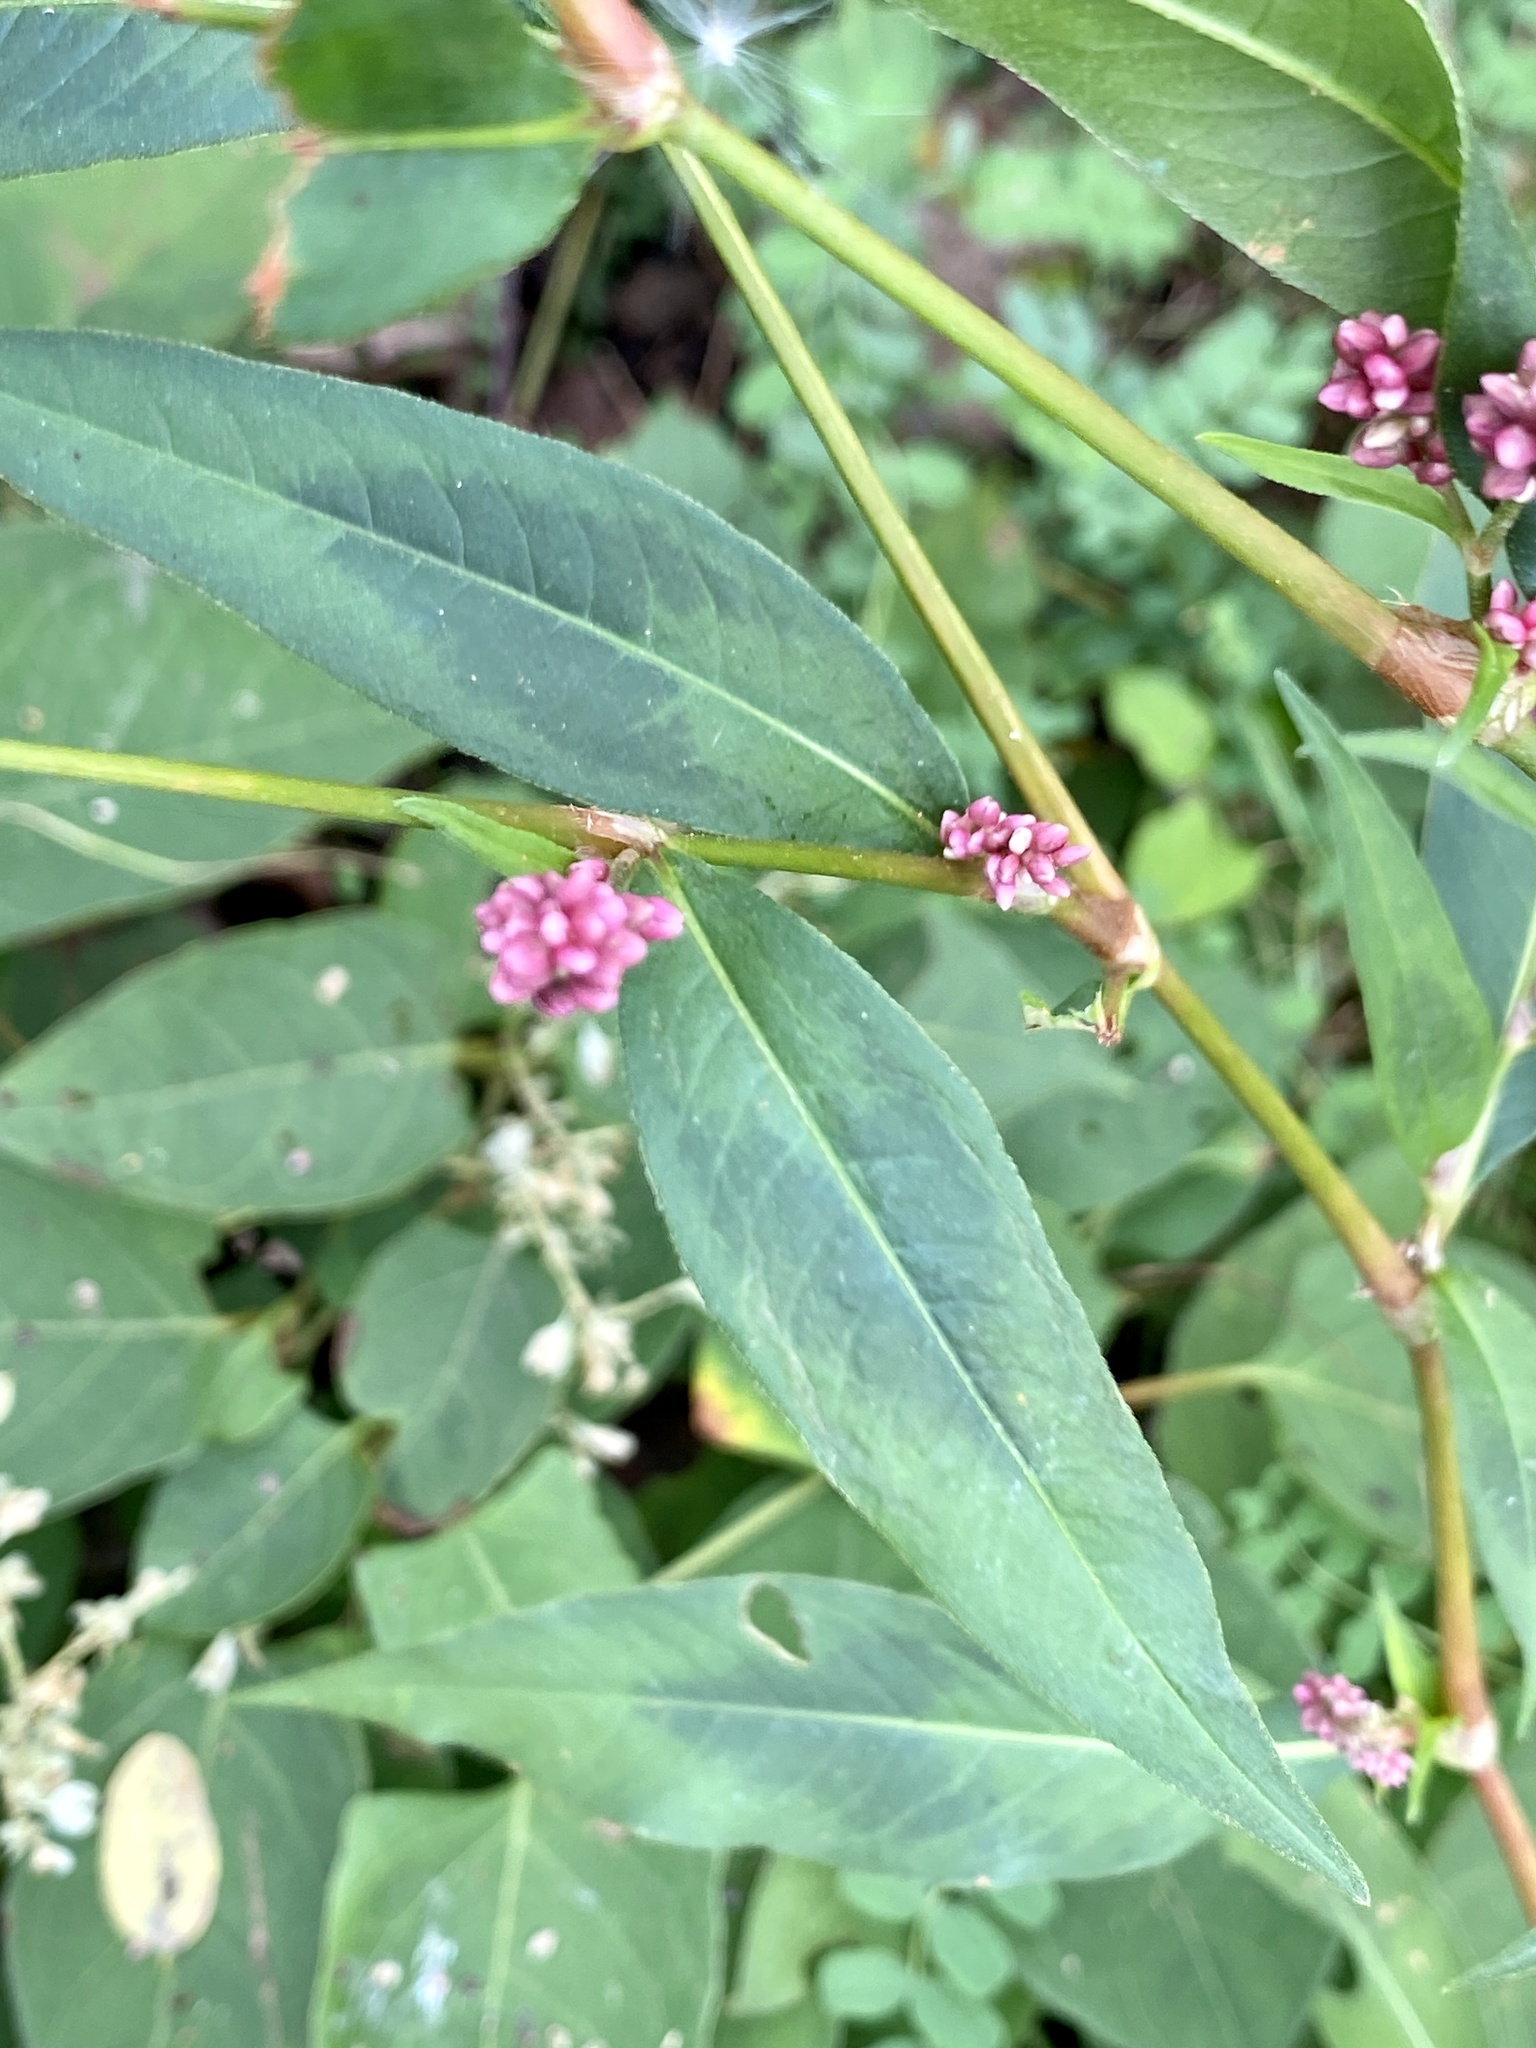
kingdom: Plantae
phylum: Tracheophyta
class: Magnoliopsida
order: Caryophyllales
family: Polygonaceae
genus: Persicaria
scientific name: Persicaria extremiorientalis
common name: Far-eastern smartweed
